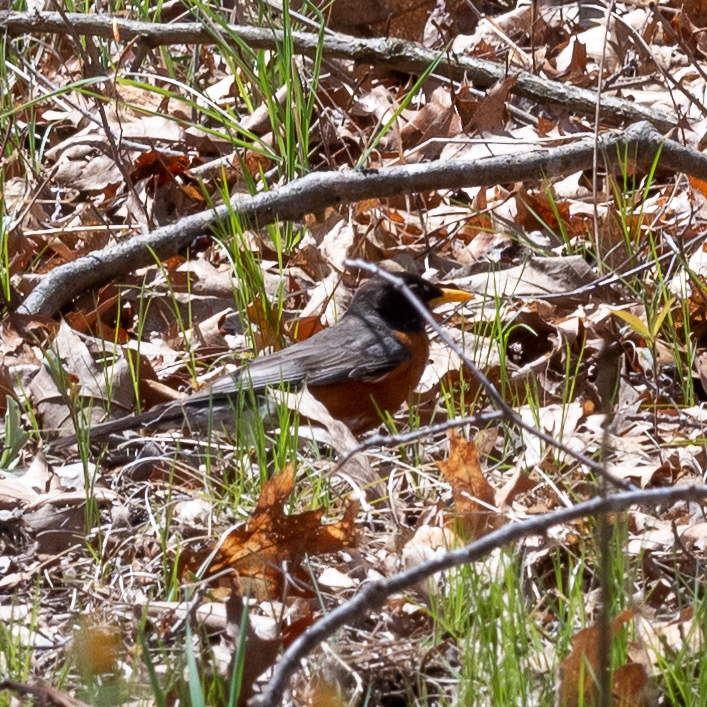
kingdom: Animalia
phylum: Chordata
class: Aves
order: Passeriformes
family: Turdidae
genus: Turdus
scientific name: Turdus migratorius
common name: American robin
